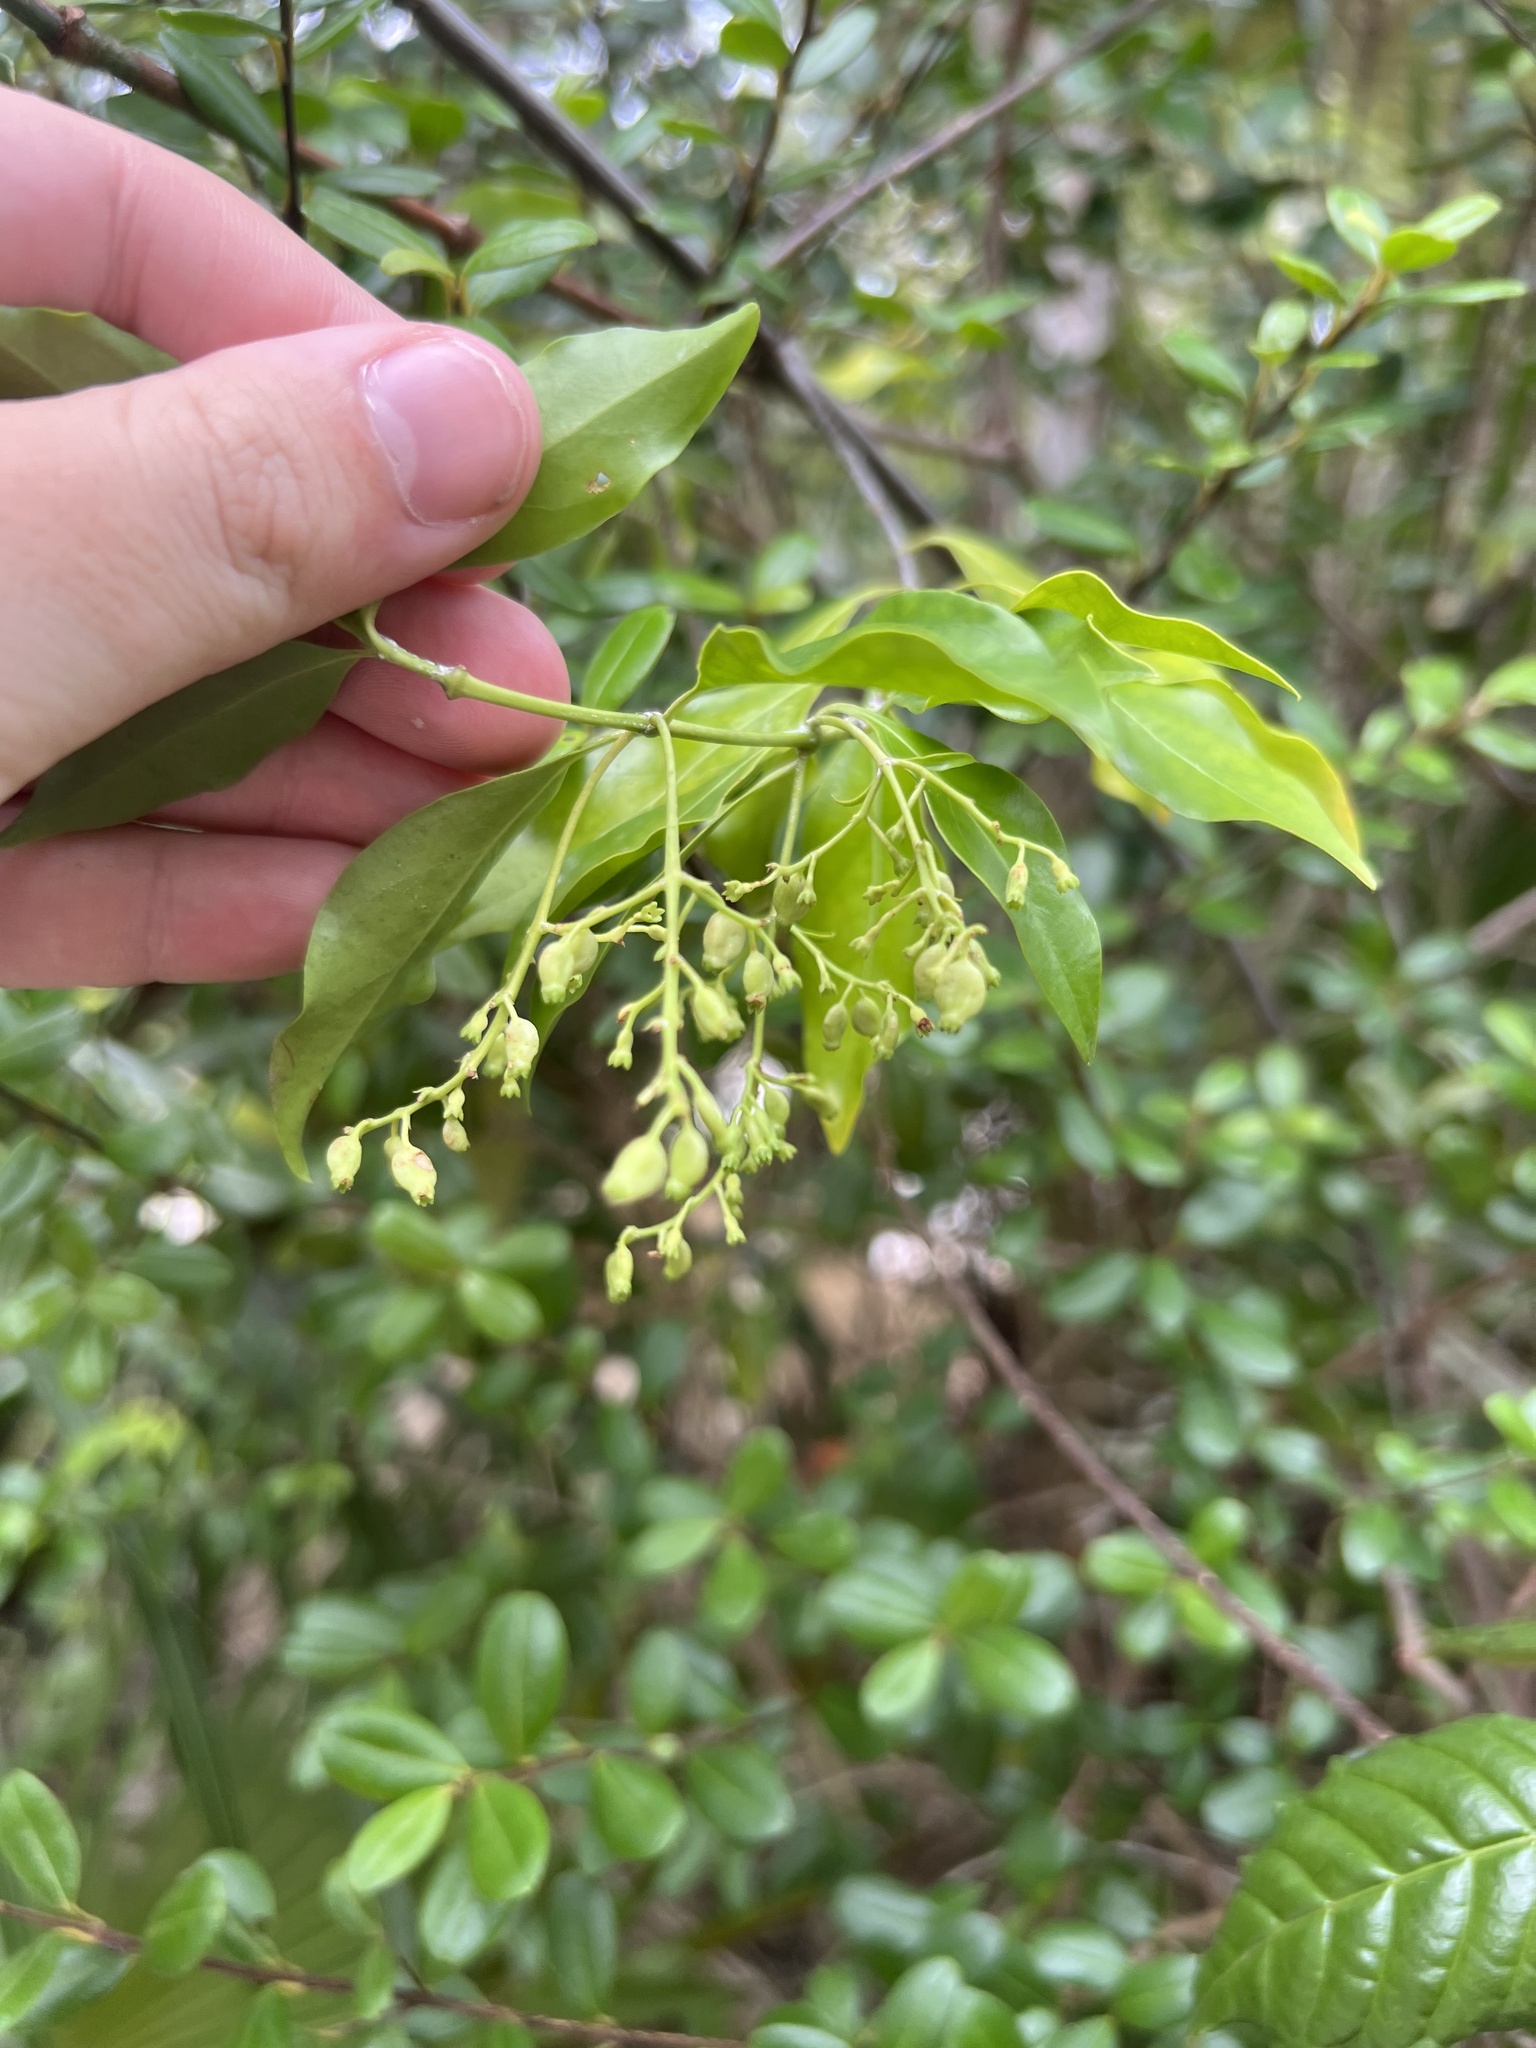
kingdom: Plantae
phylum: Tracheophyta
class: Magnoliopsida
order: Gentianales
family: Rubiaceae
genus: Chiococca
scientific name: Chiococca alba
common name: Snowberry
